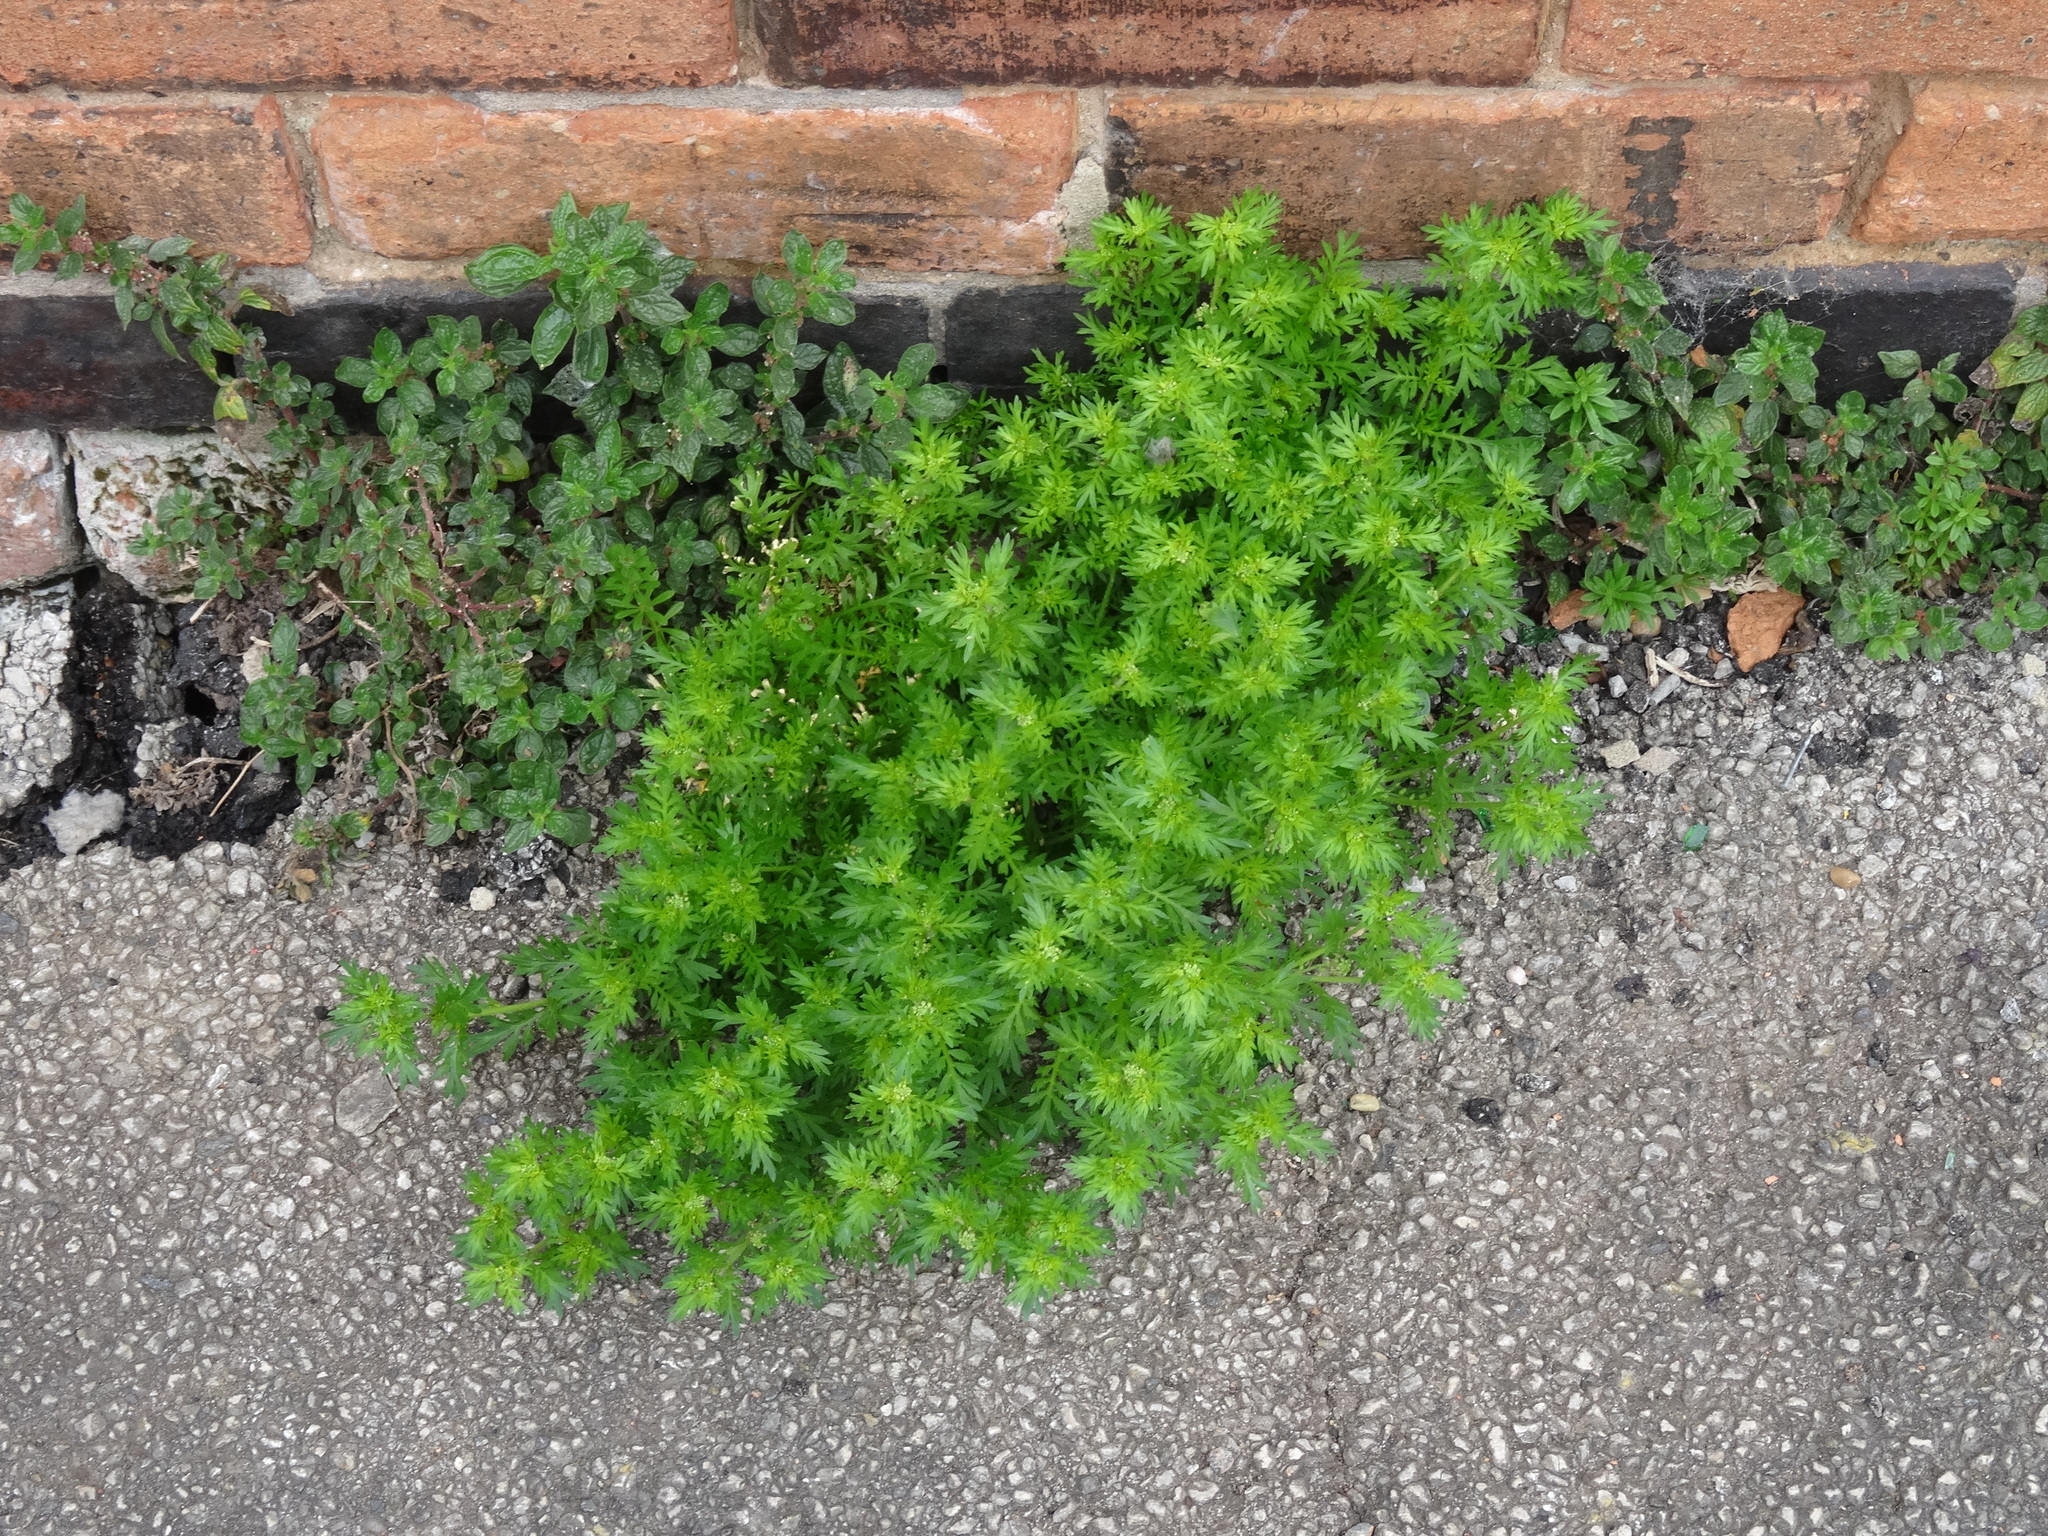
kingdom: Plantae
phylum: Tracheophyta
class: Magnoliopsida
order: Brassicales
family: Brassicaceae
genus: Lepidium
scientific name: Lepidium didymum
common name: Lesser swinecress
